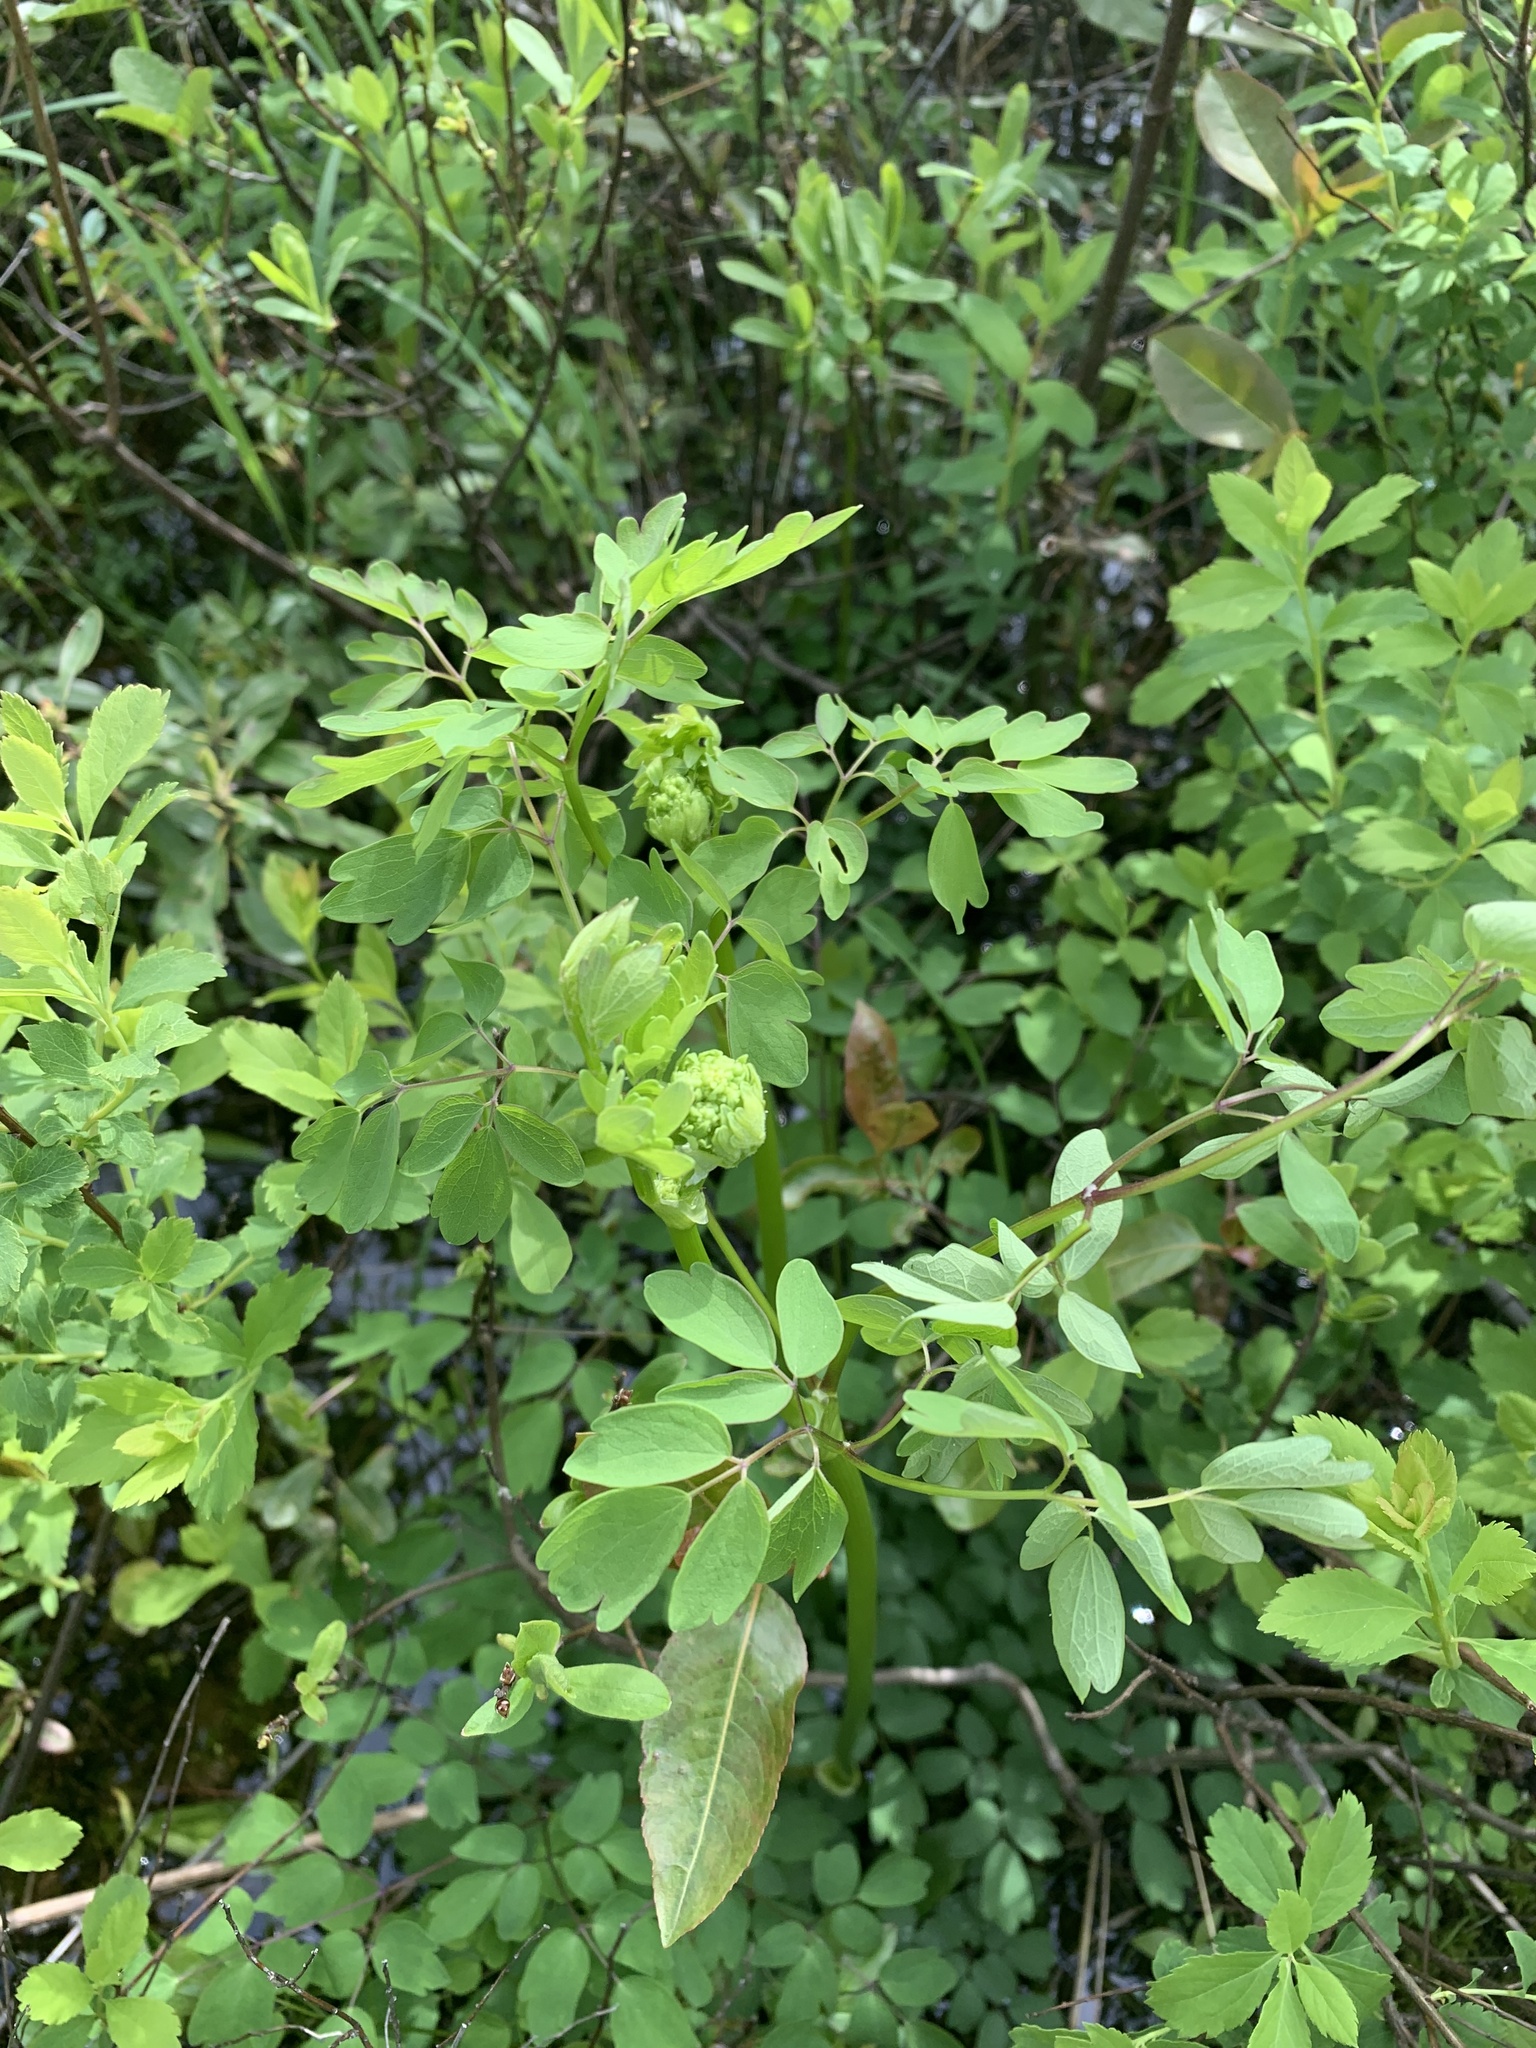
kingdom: Plantae
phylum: Tracheophyta
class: Magnoliopsida
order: Ranunculales
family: Ranunculaceae
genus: Thalictrum
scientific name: Thalictrum pubescens
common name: King-of-the-meadow
